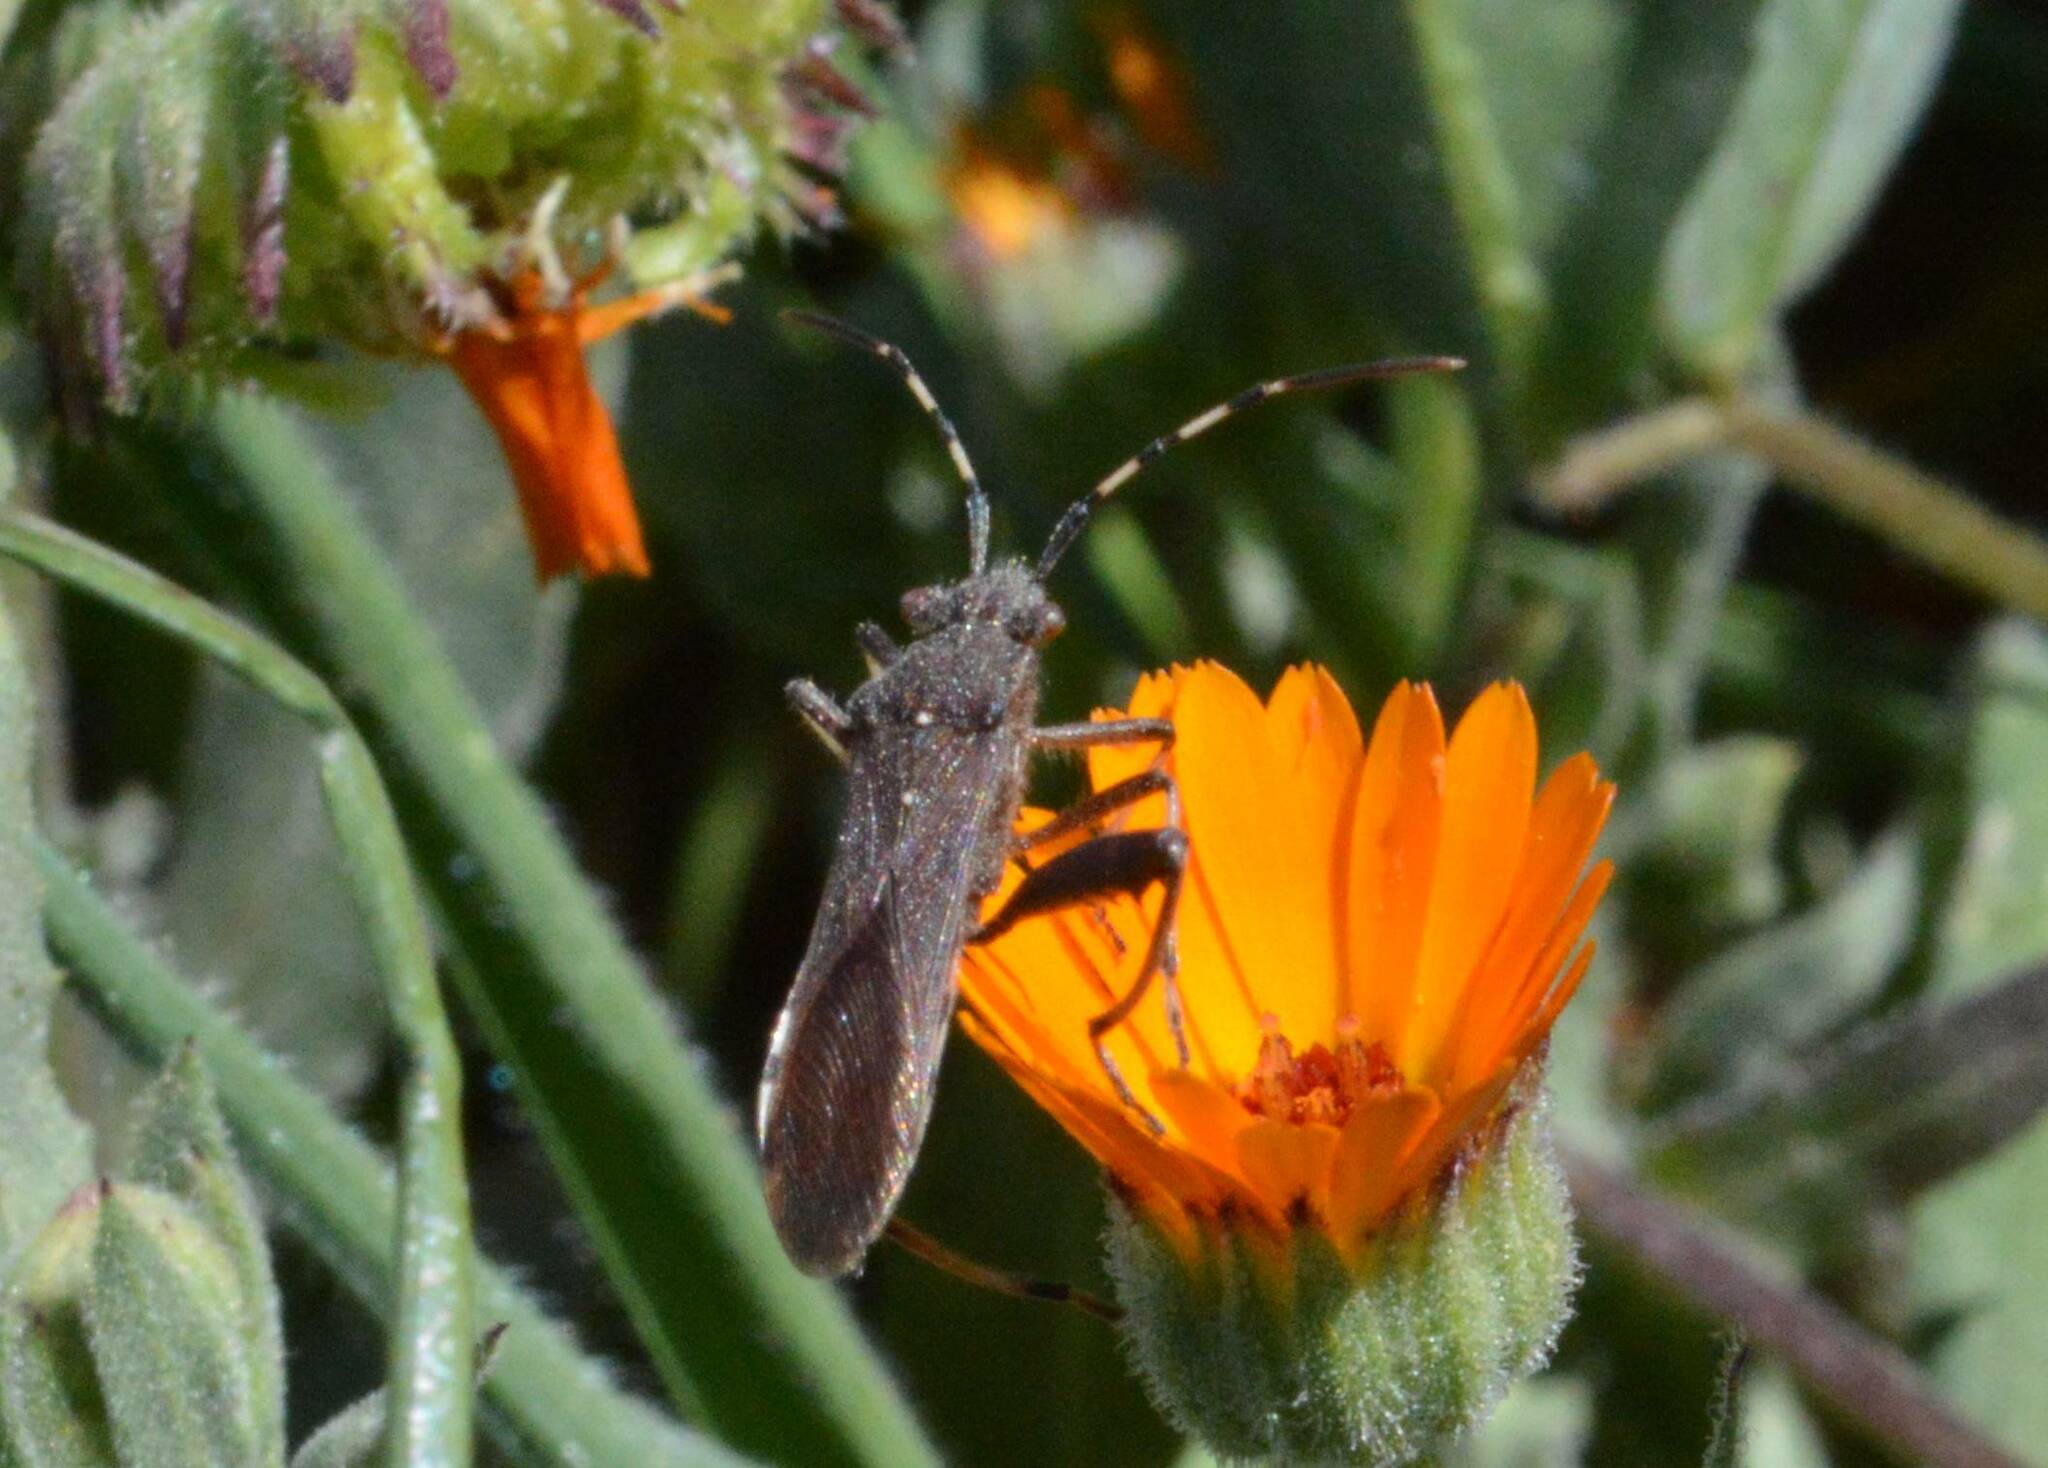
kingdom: Animalia
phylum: Arthropoda
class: Insecta
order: Hemiptera
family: Alydidae
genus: Camptopus
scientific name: Camptopus lateralis
